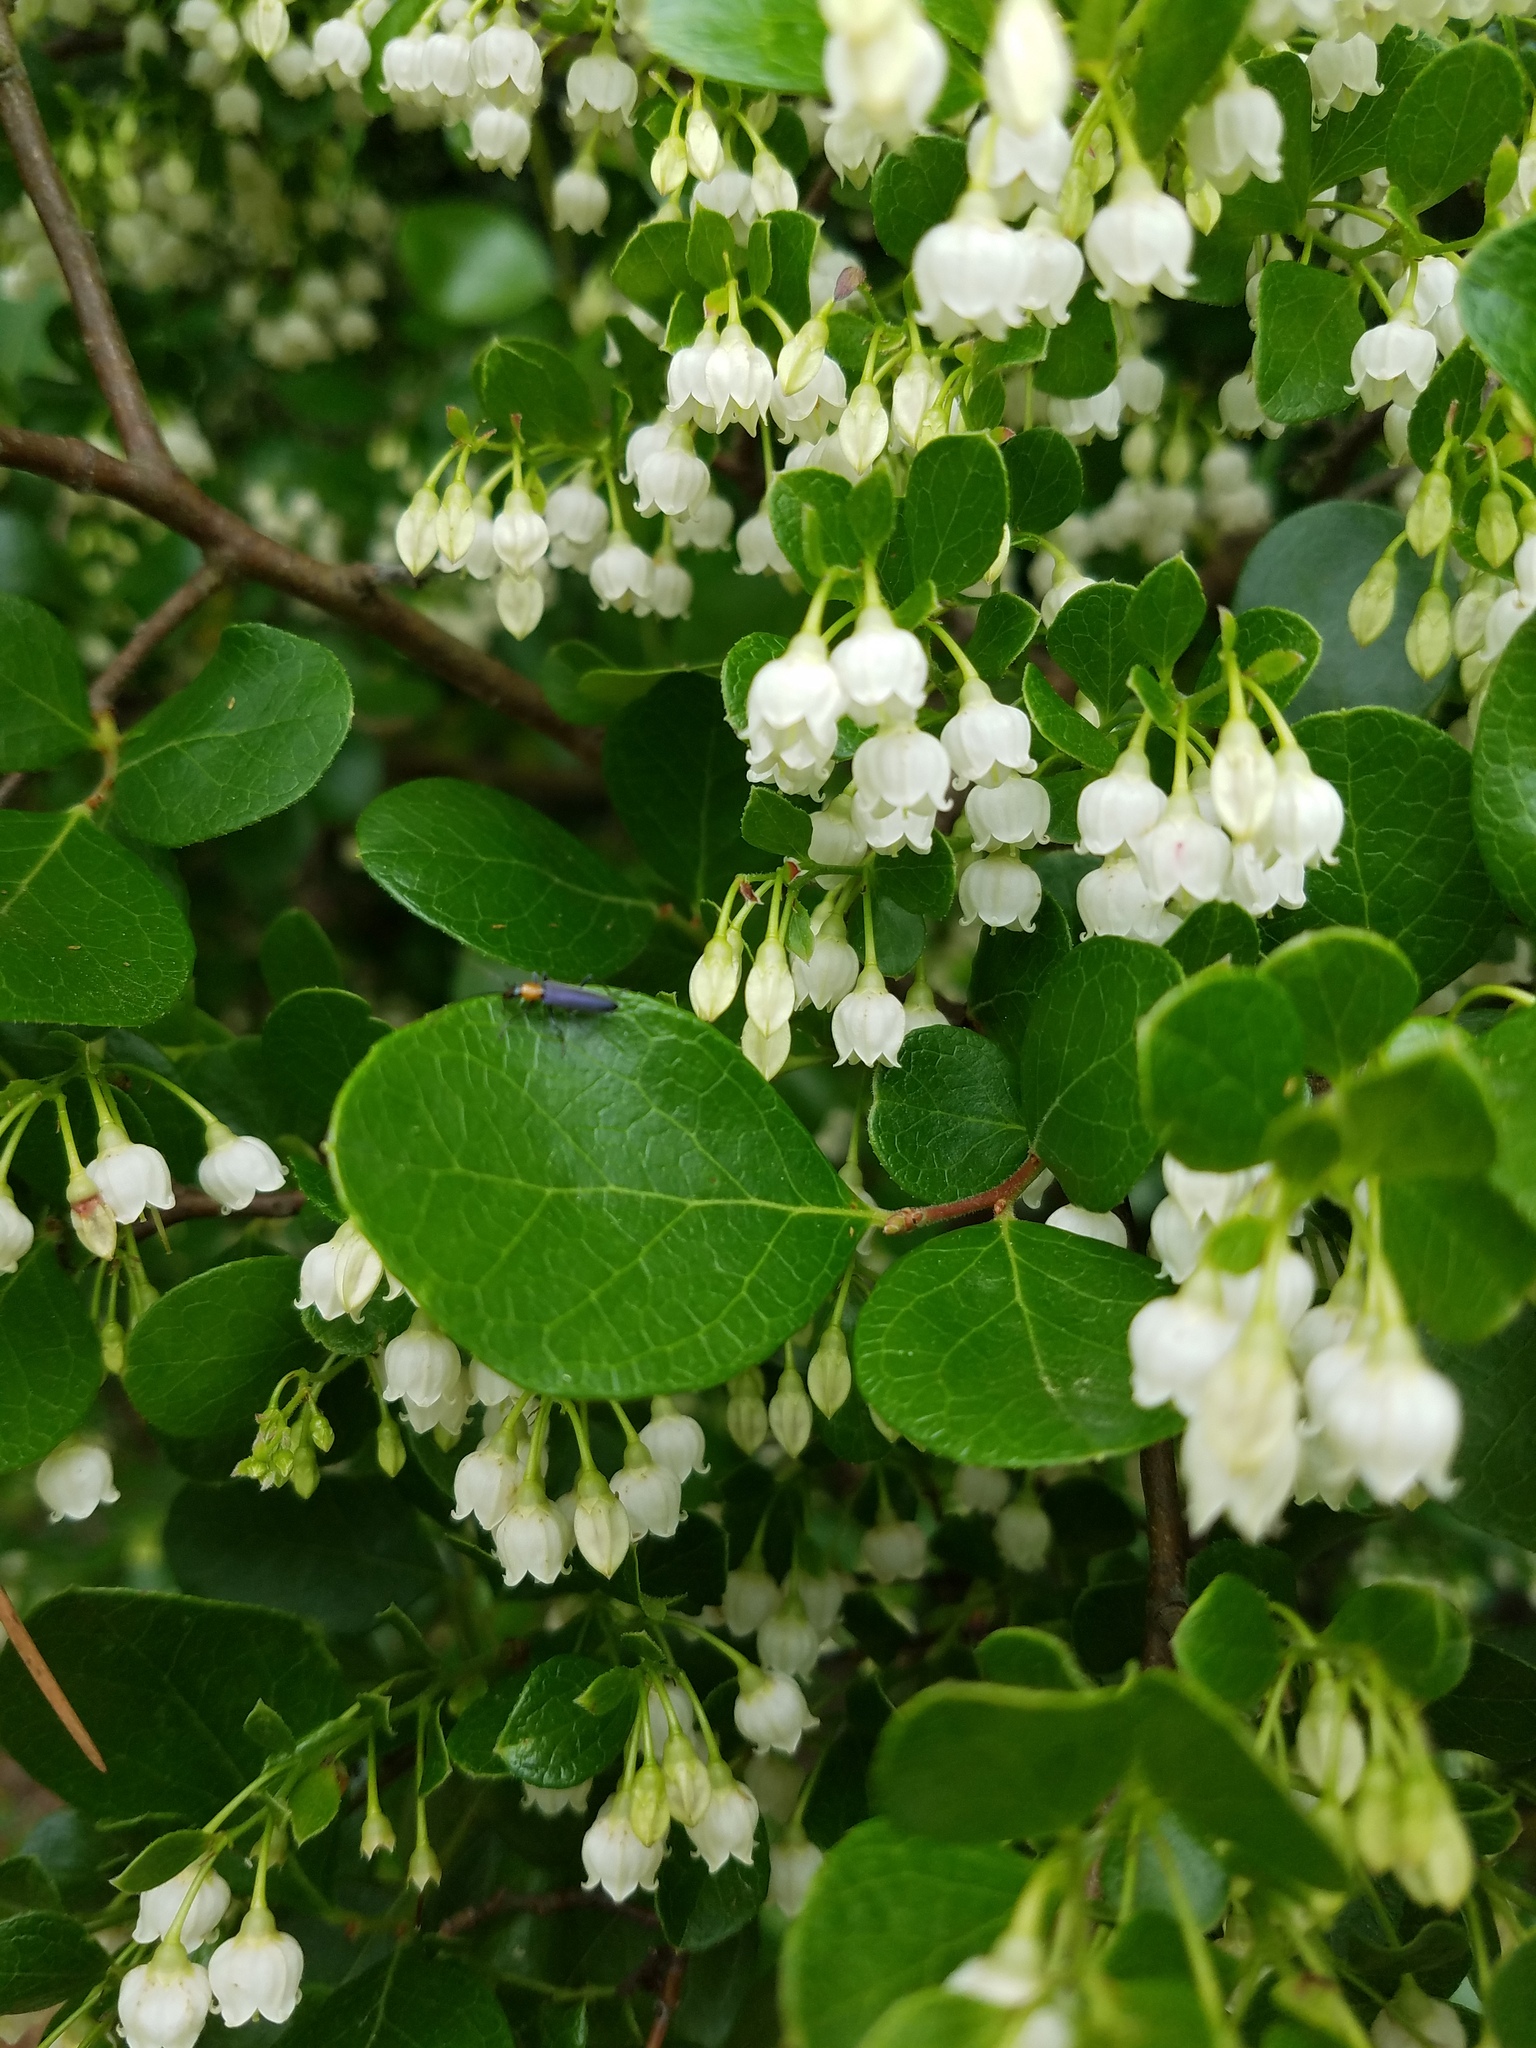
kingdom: Plantae
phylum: Tracheophyta
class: Magnoliopsida
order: Ericales
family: Ericaceae
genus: Vaccinium
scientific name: Vaccinium arboreum
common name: Farkleberry
